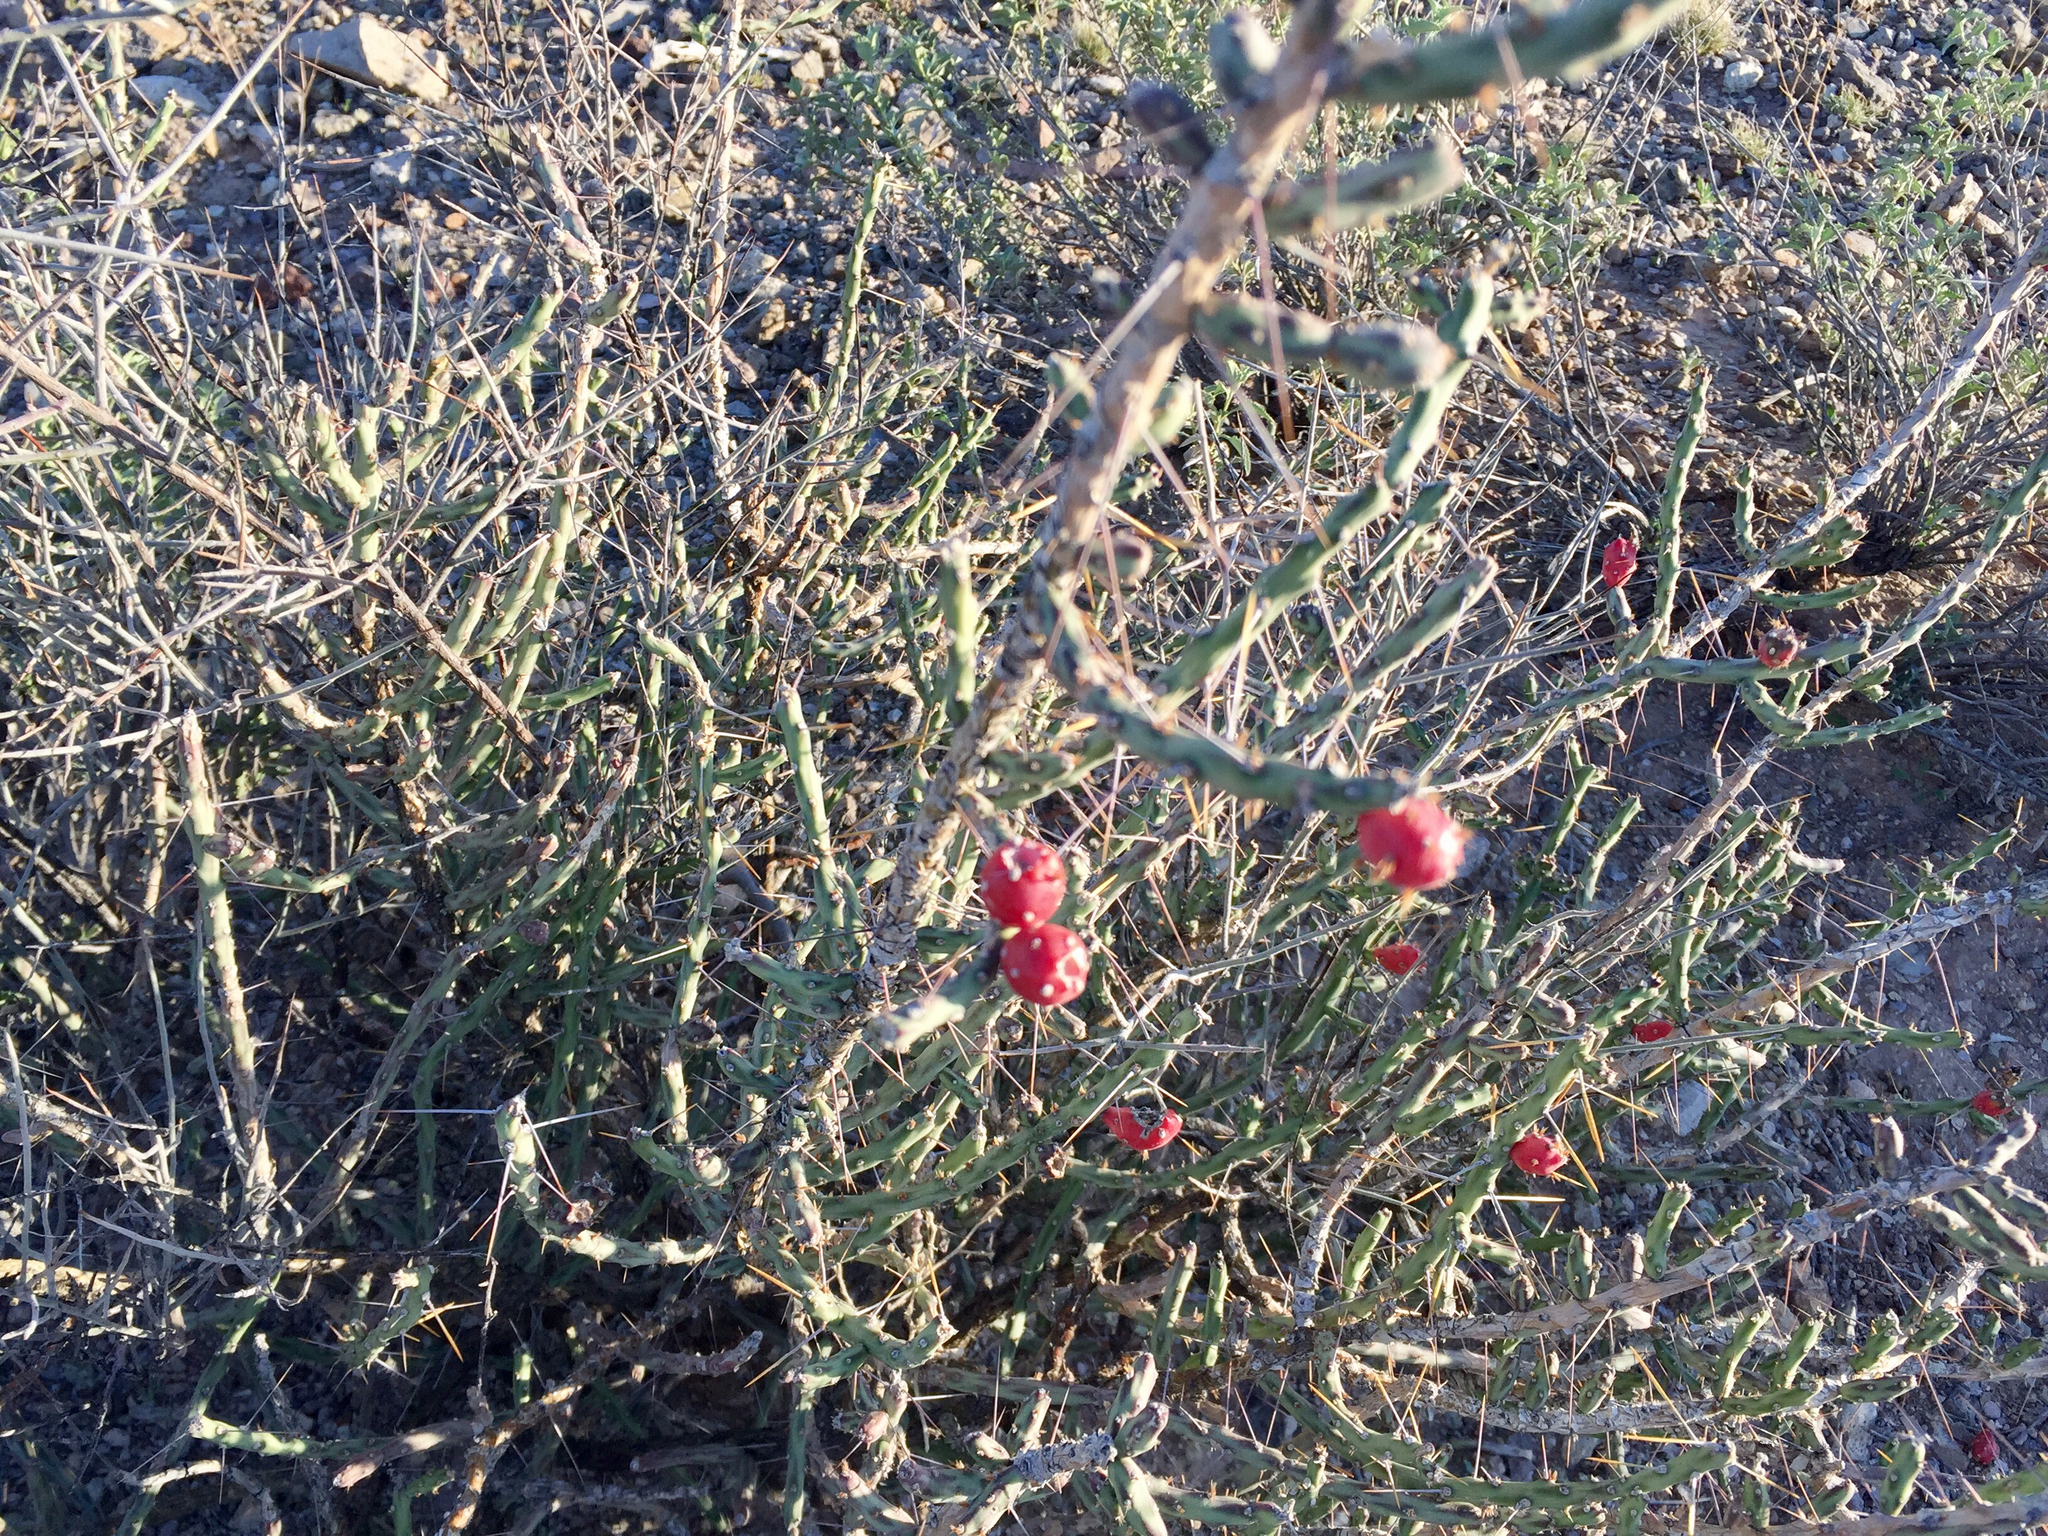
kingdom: Plantae
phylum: Tracheophyta
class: Magnoliopsida
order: Caryophyllales
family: Cactaceae
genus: Cylindropuntia
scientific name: Cylindropuntia leptocaulis
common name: Christmas cactus
